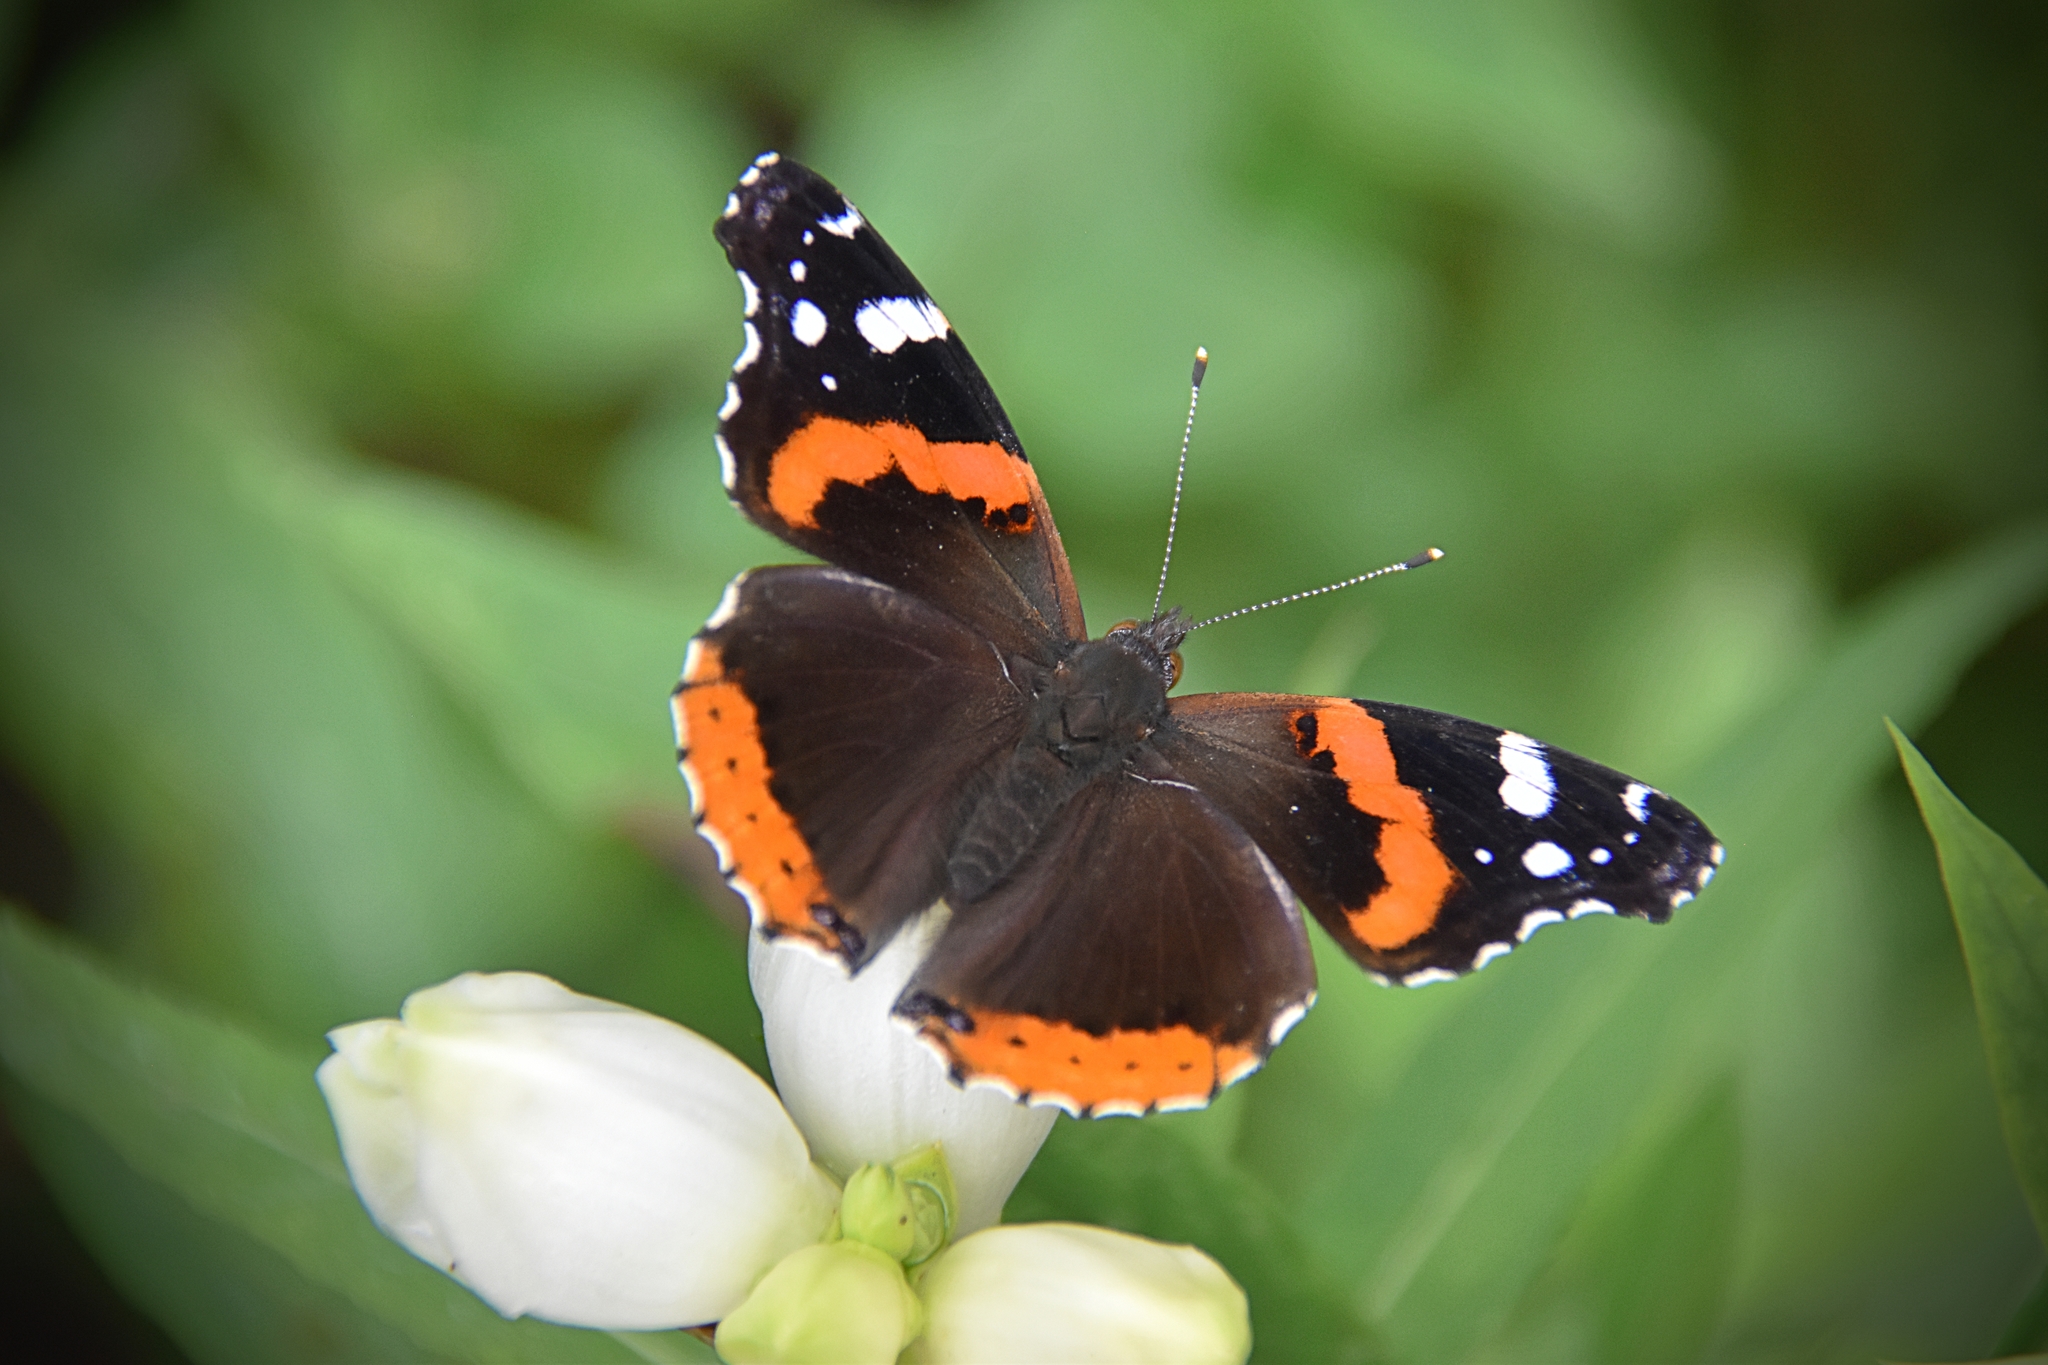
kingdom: Animalia
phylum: Arthropoda
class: Insecta
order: Lepidoptera
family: Nymphalidae
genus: Vanessa
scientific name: Vanessa atalanta
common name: Red admiral
